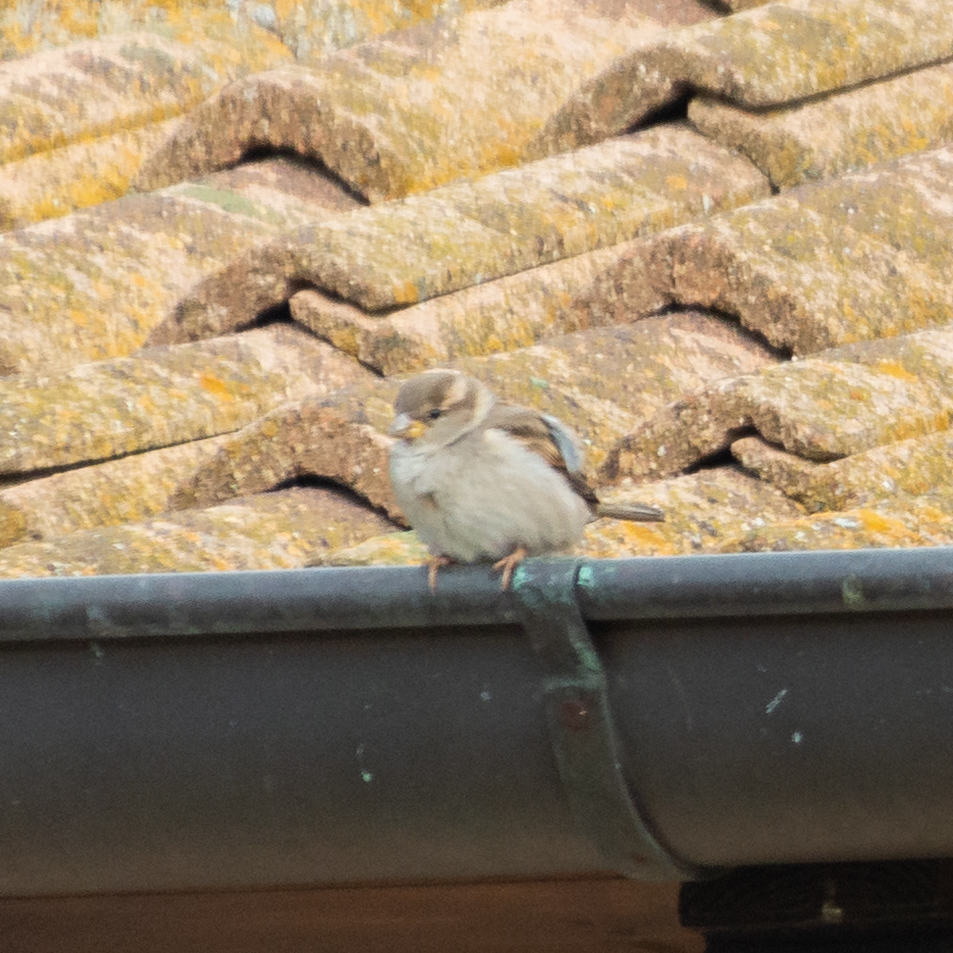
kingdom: Animalia
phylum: Chordata
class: Aves
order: Passeriformes
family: Passeridae
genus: Passer
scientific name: Passer domesticus
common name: House sparrow
